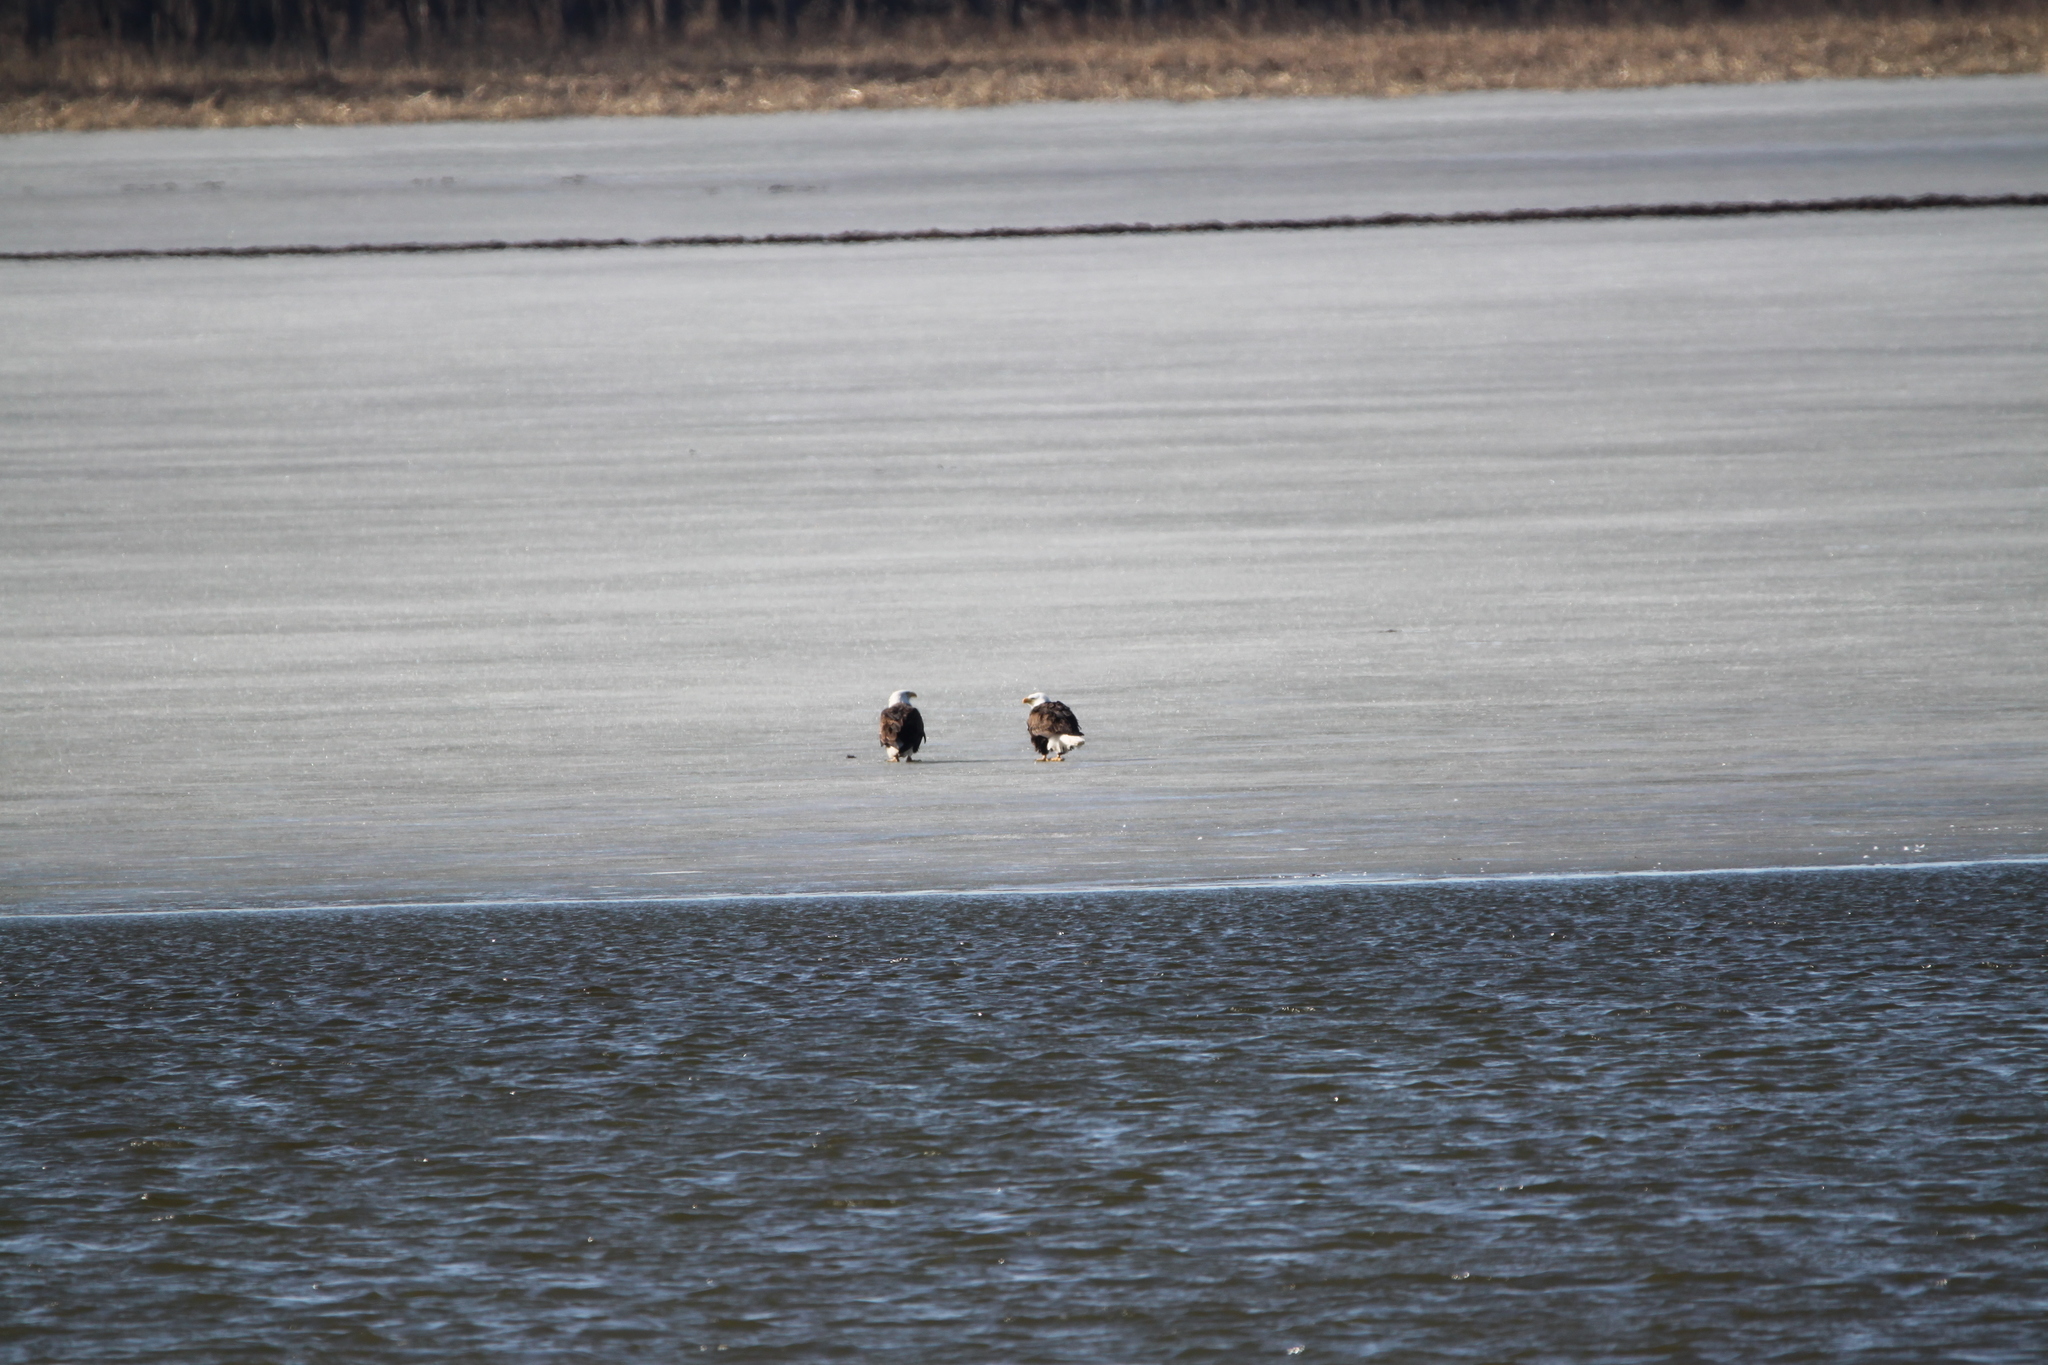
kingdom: Animalia
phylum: Chordata
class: Aves
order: Accipitriformes
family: Accipitridae
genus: Haliaeetus
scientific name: Haliaeetus leucocephalus
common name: Bald eagle
